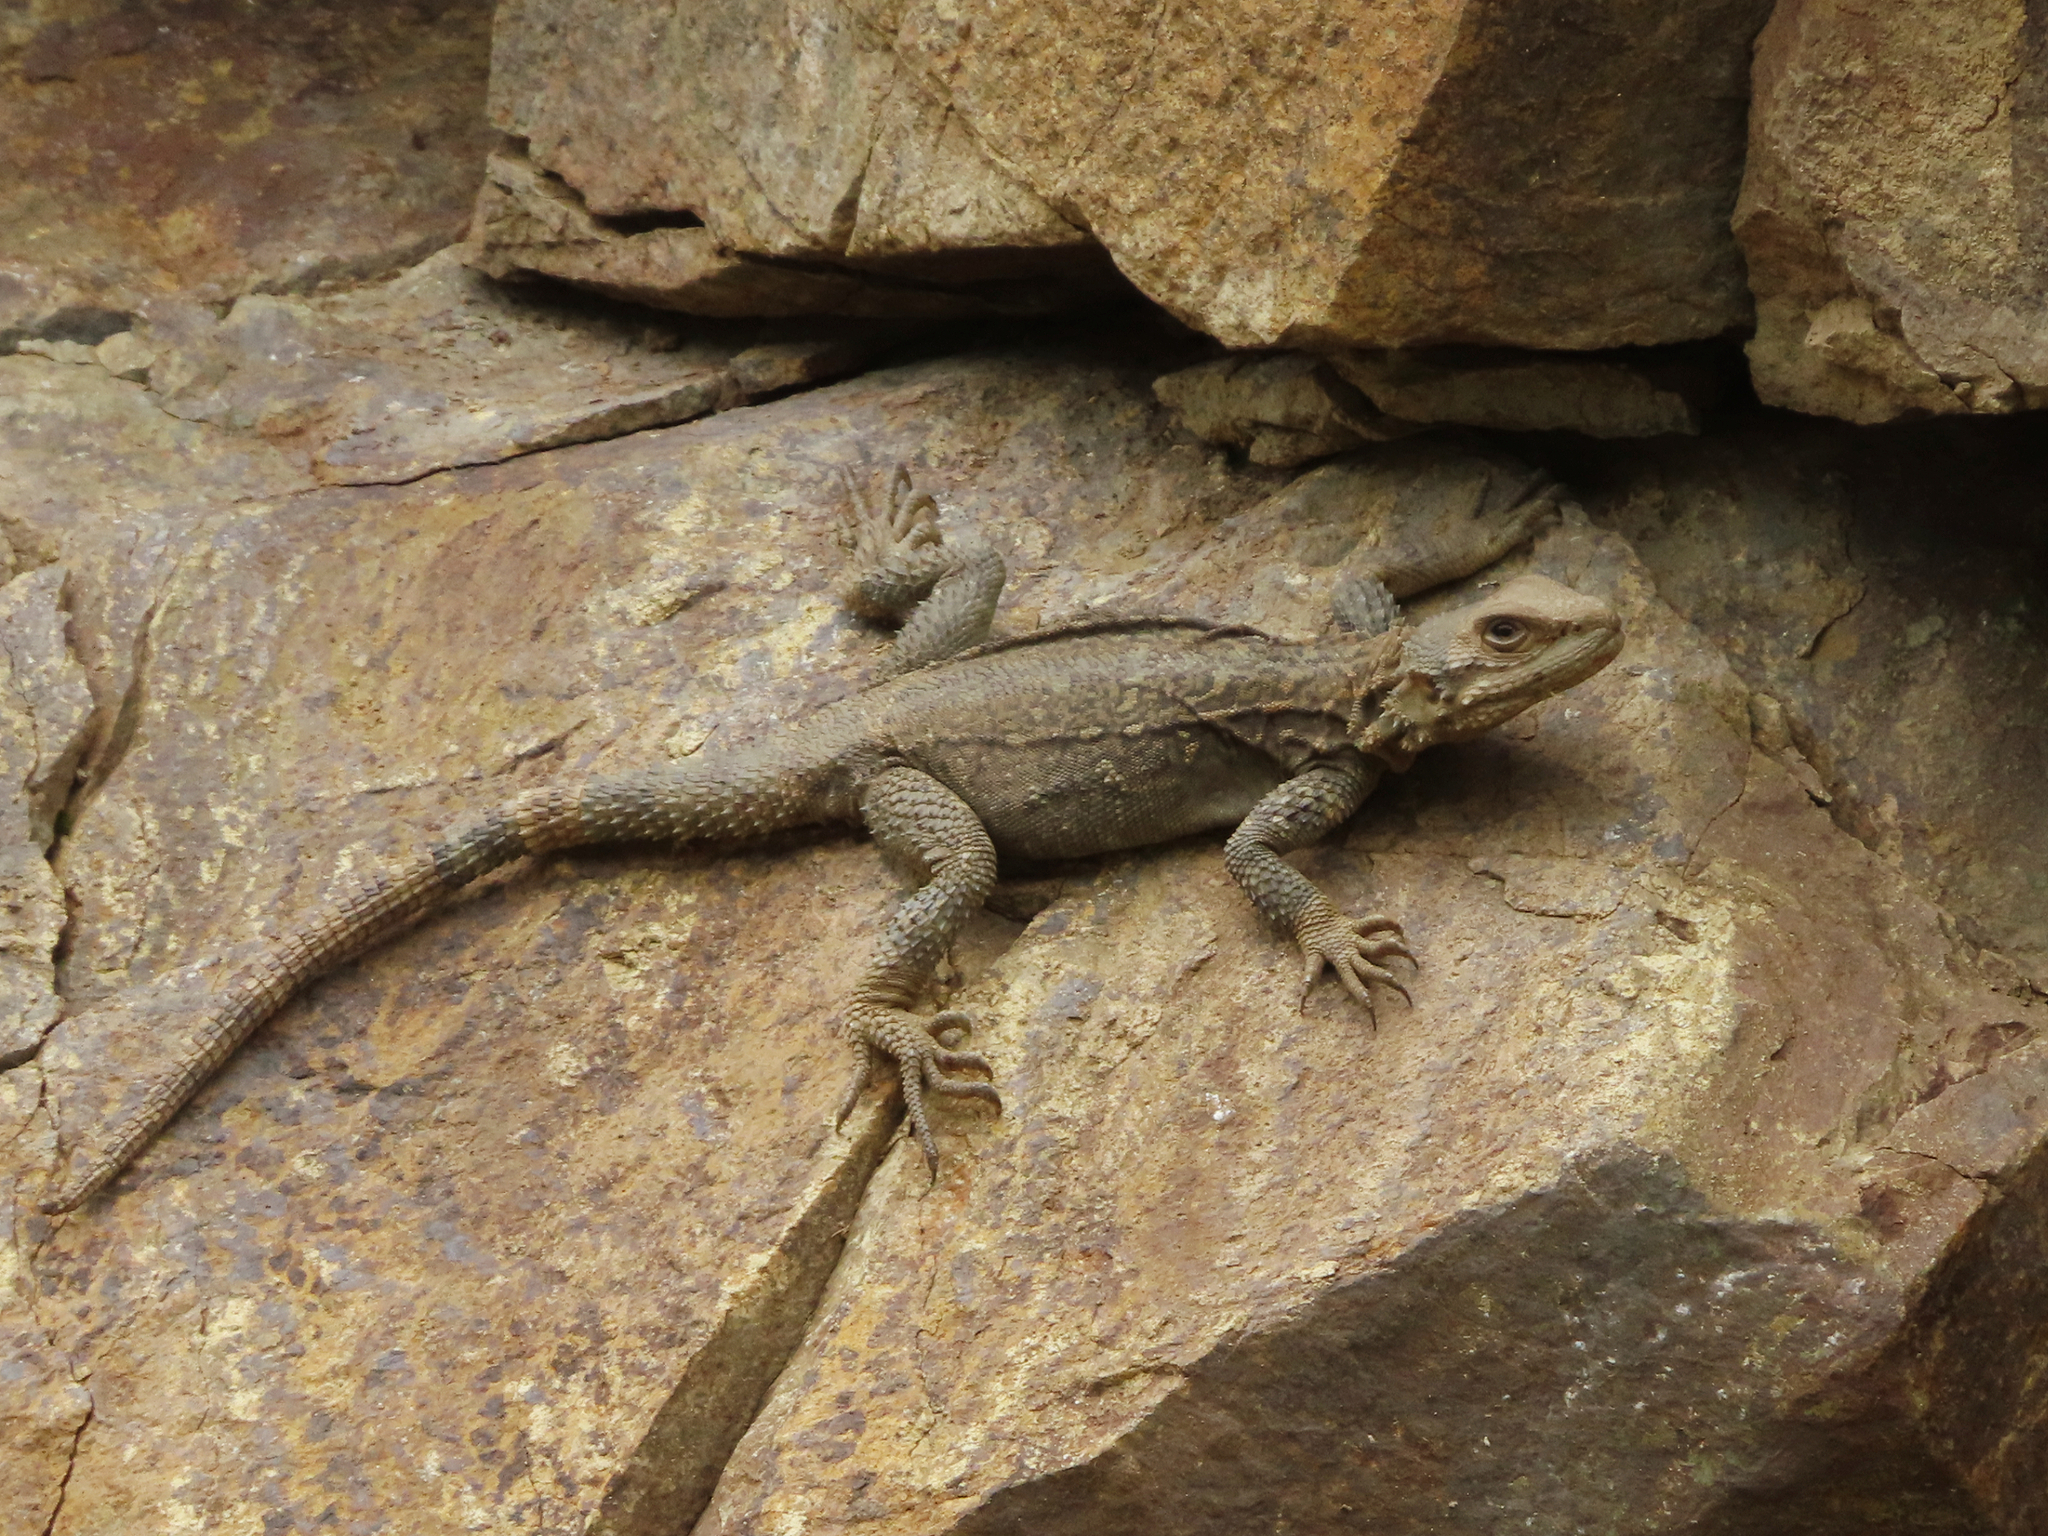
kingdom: Animalia
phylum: Chordata
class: Squamata
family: Agamidae
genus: Paralaudakia
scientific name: Paralaudakia caucasia
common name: Caucasian agama
